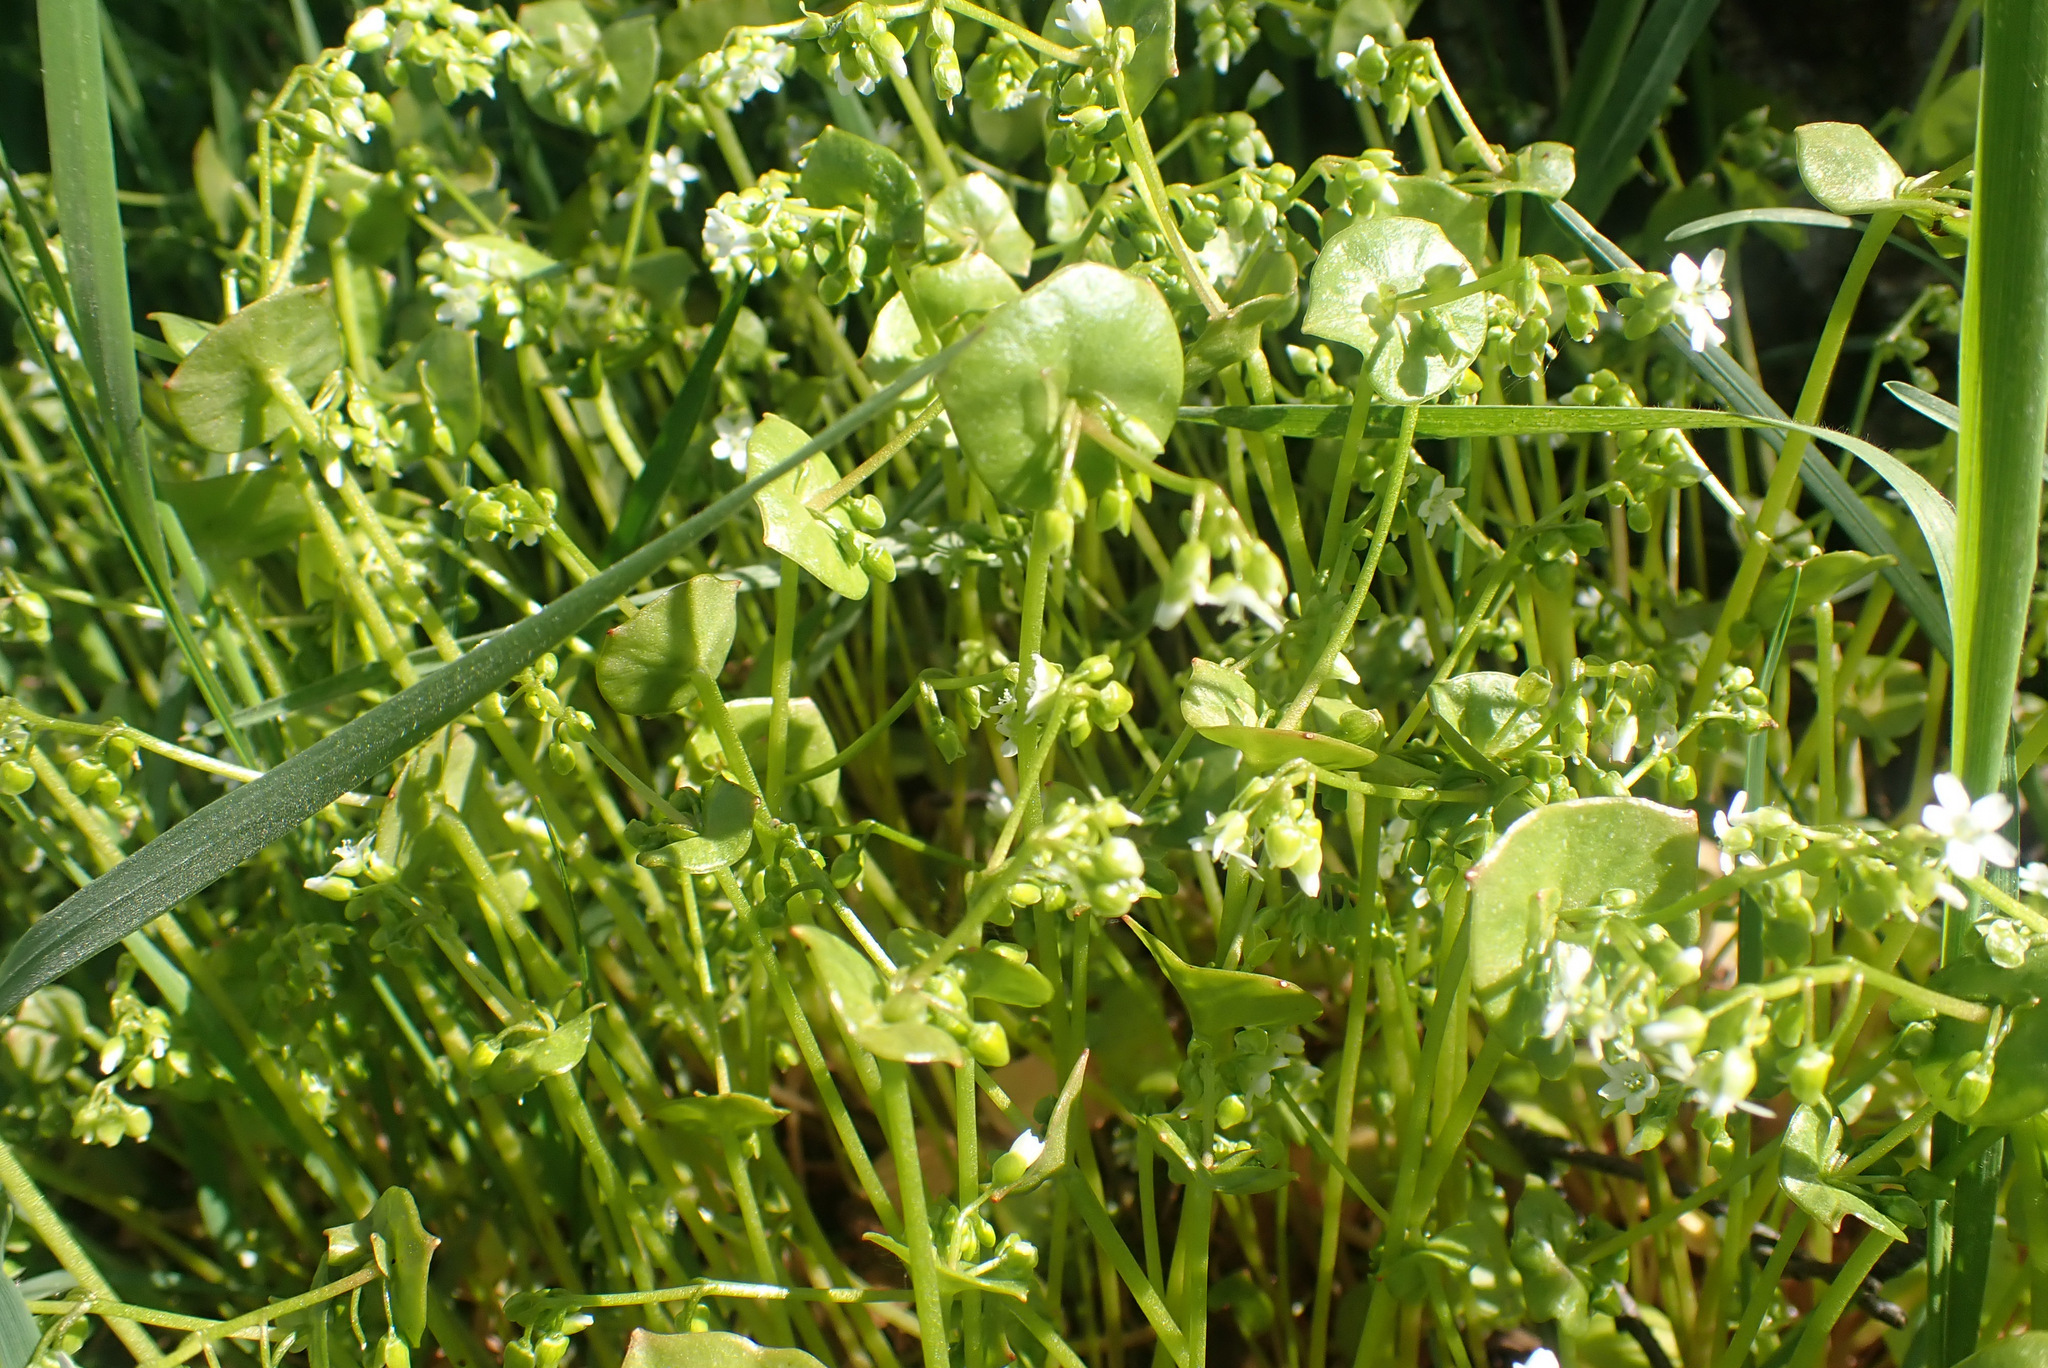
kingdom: Plantae
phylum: Tracheophyta
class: Magnoliopsida
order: Caryophyllales
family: Montiaceae
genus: Claytonia
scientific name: Claytonia perfoliata
